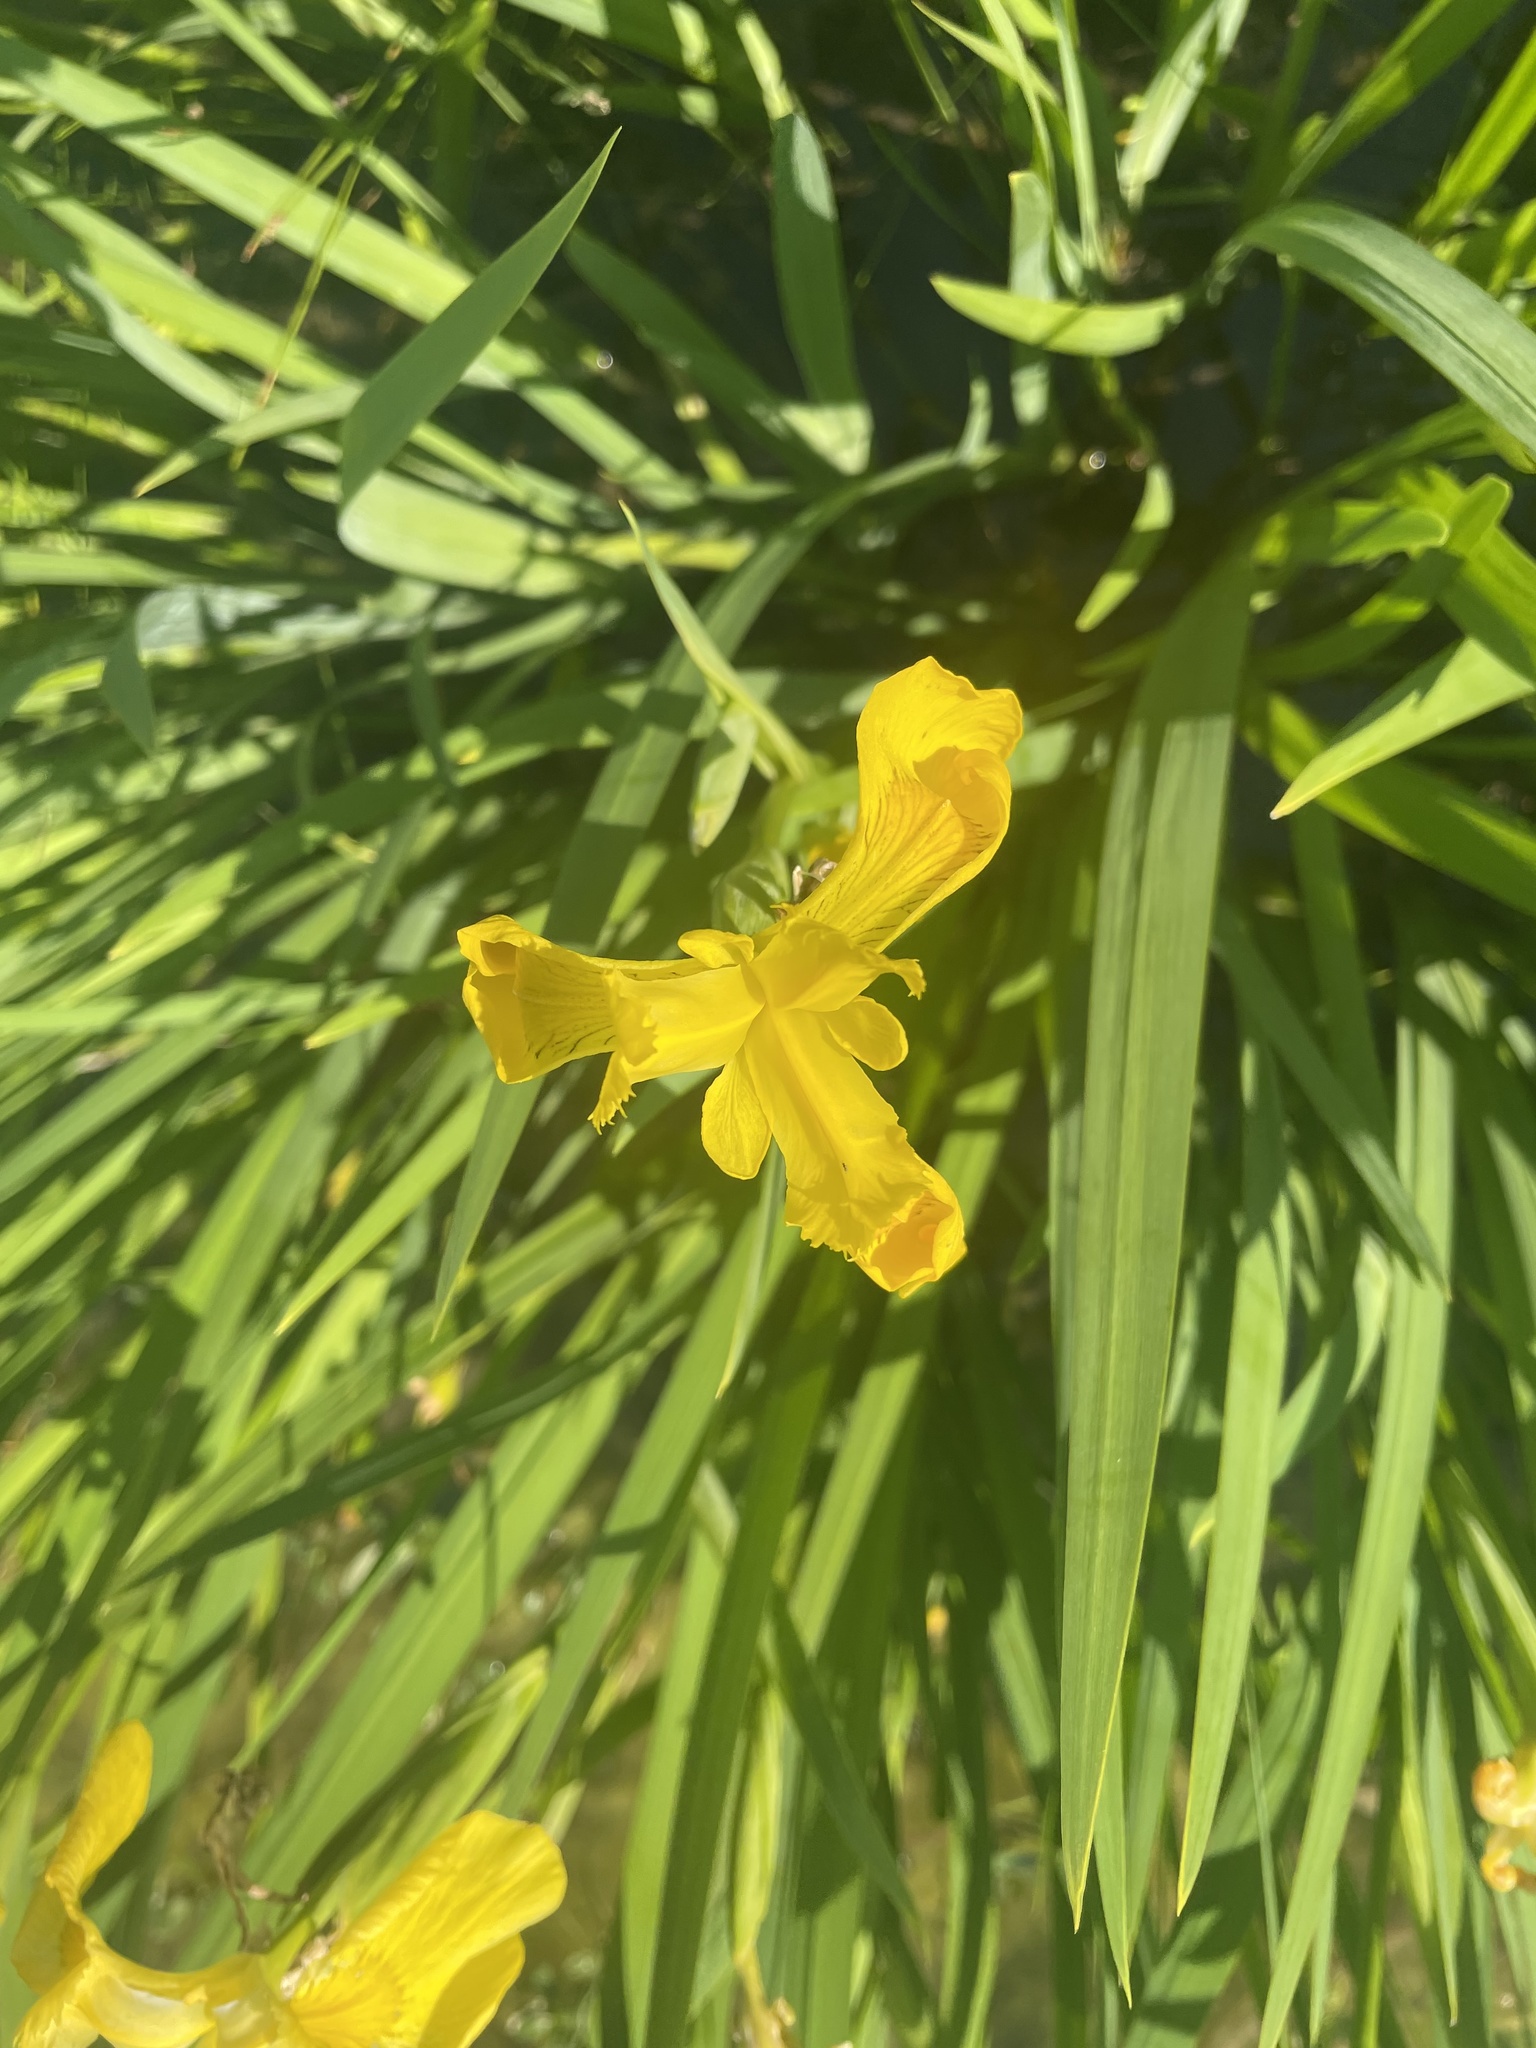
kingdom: Plantae
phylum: Tracheophyta
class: Liliopsida
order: Asparagales
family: Iridaceae
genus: Iris
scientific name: Iris pseudacorus
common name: Yellow flag
